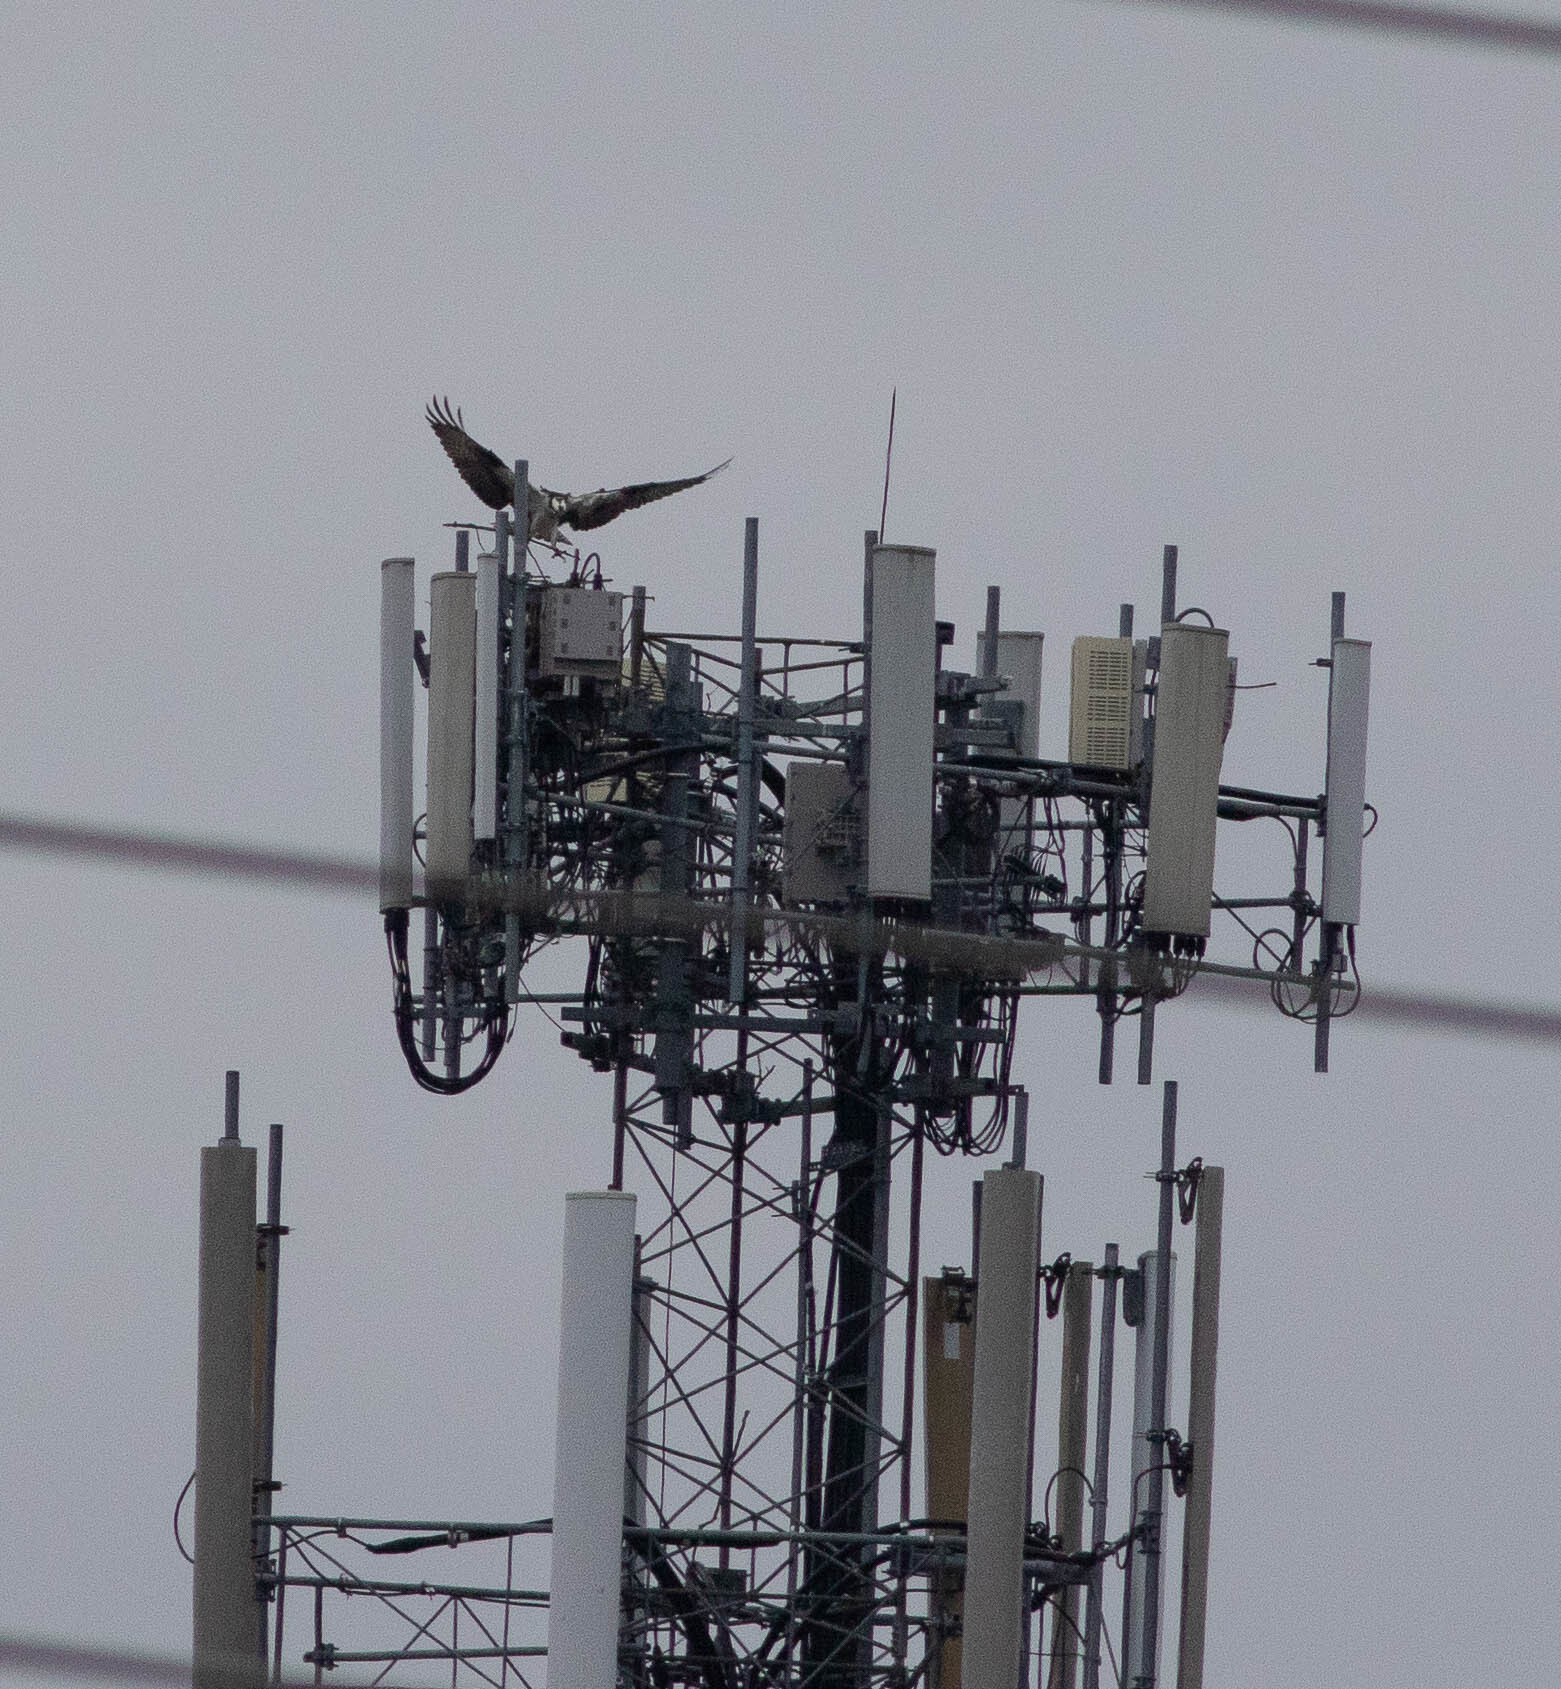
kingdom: Animalia
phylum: Chordata
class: Aves
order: Accipitriformes
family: Pandionidae
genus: Pandion
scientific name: Pandion haliaetus
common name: Osprey
